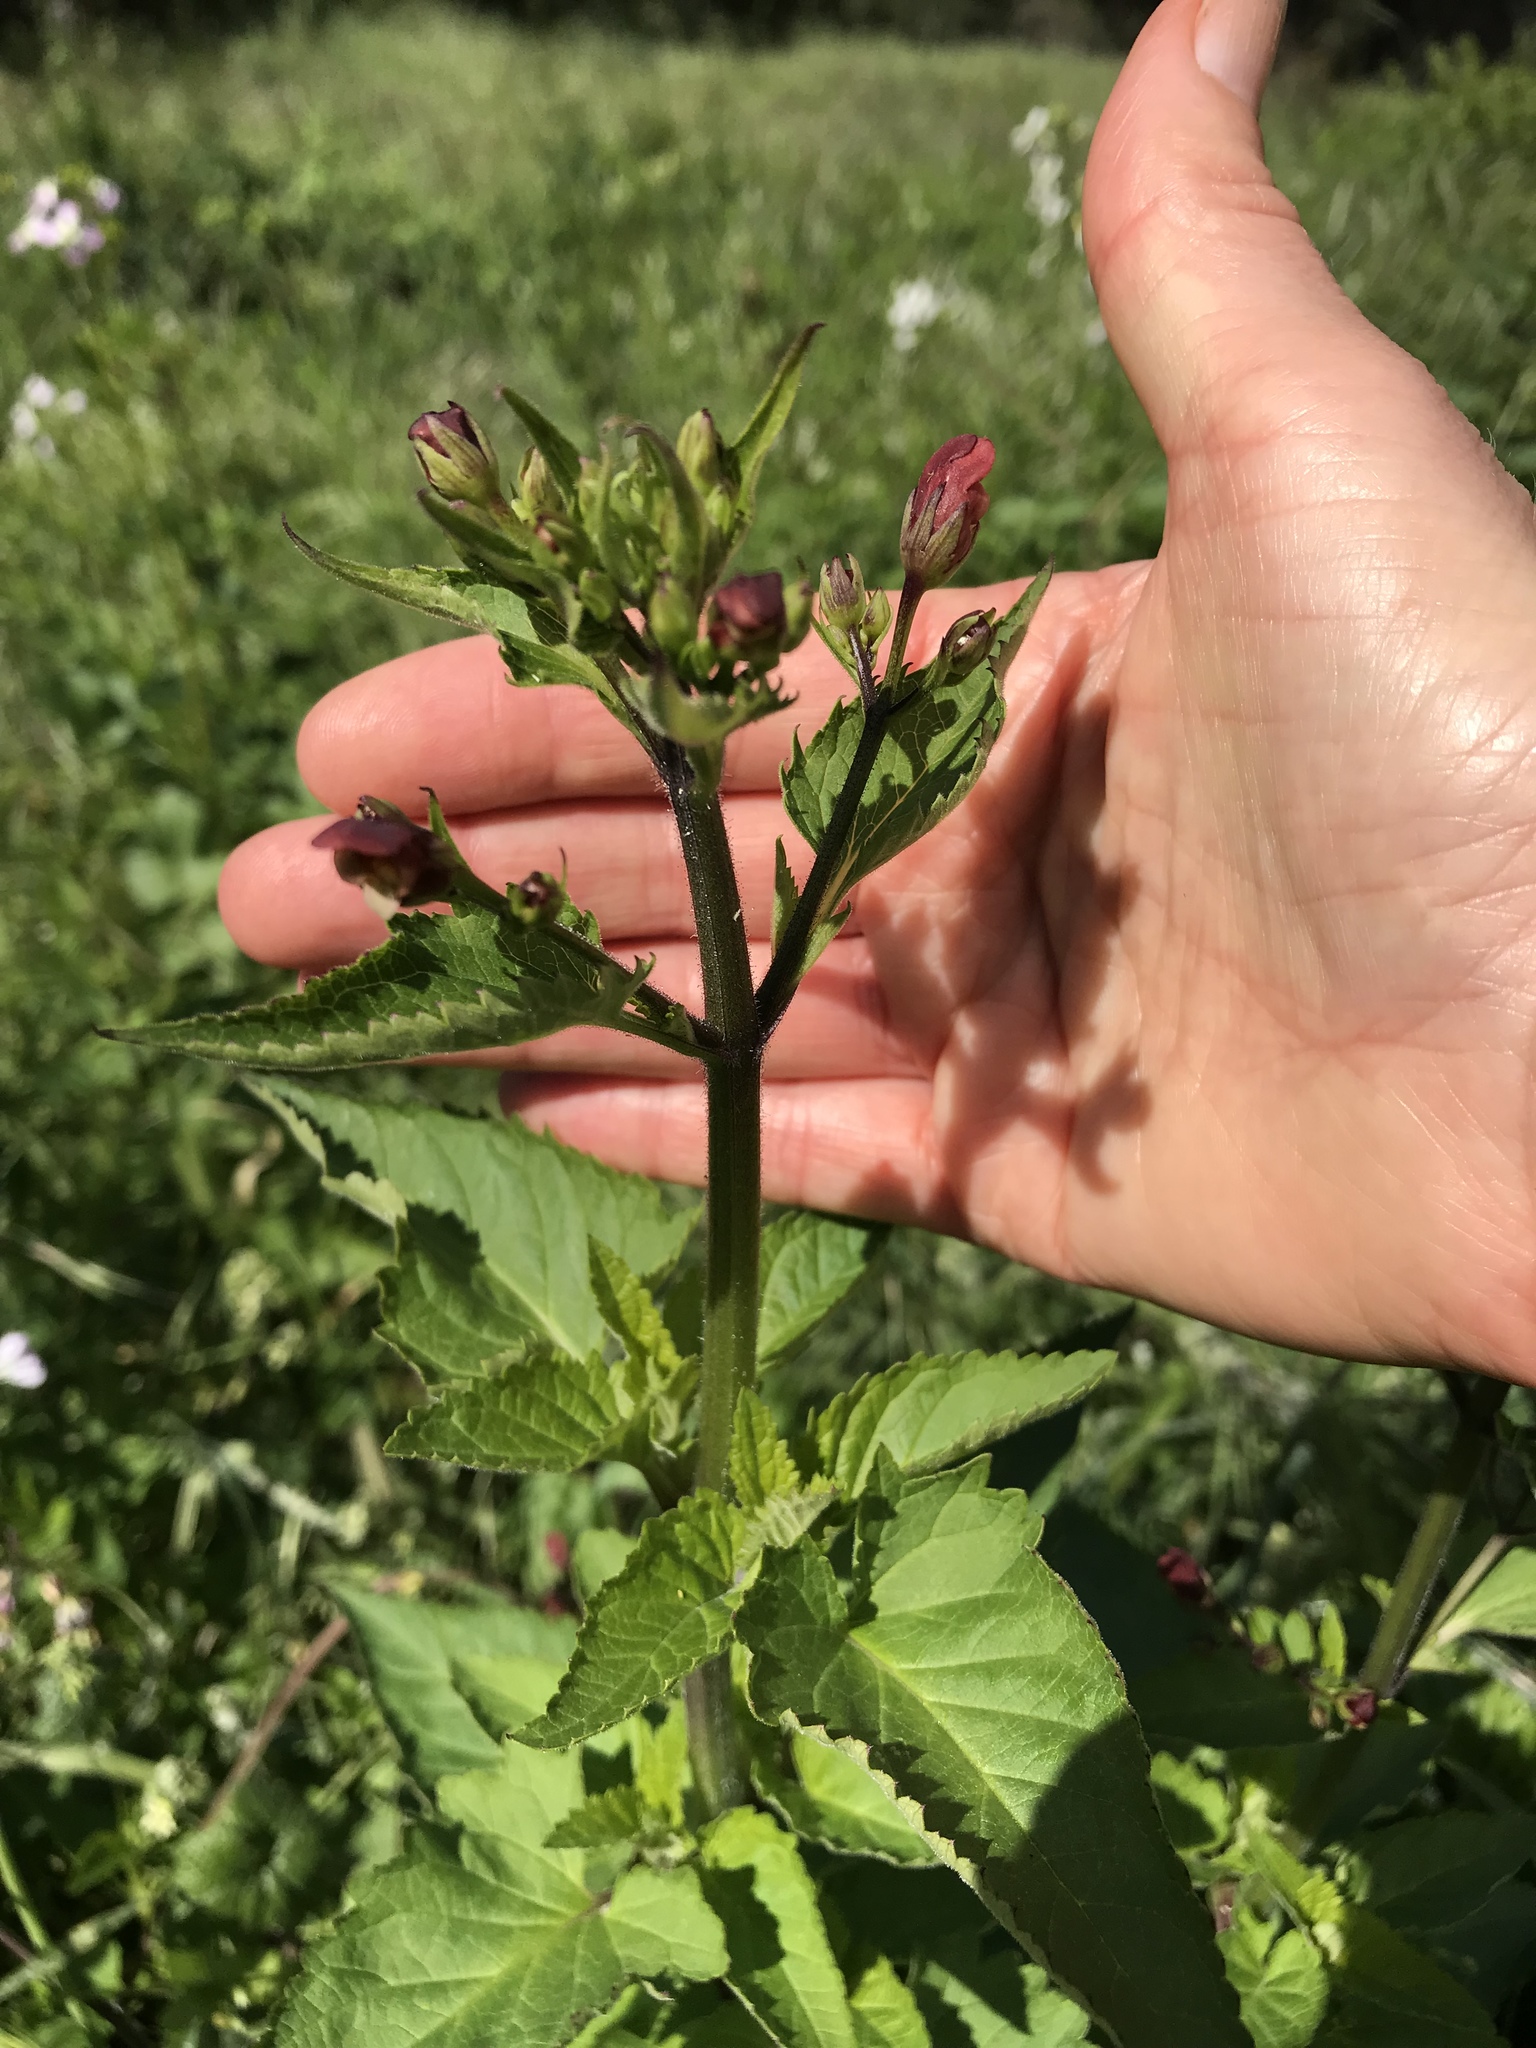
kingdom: Plantae
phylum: Tracheophyta
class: Magnoliopsida
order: Lamiales
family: Scrophulariaceae
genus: Scrophularia
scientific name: Scrophularia californica
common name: California figwort
